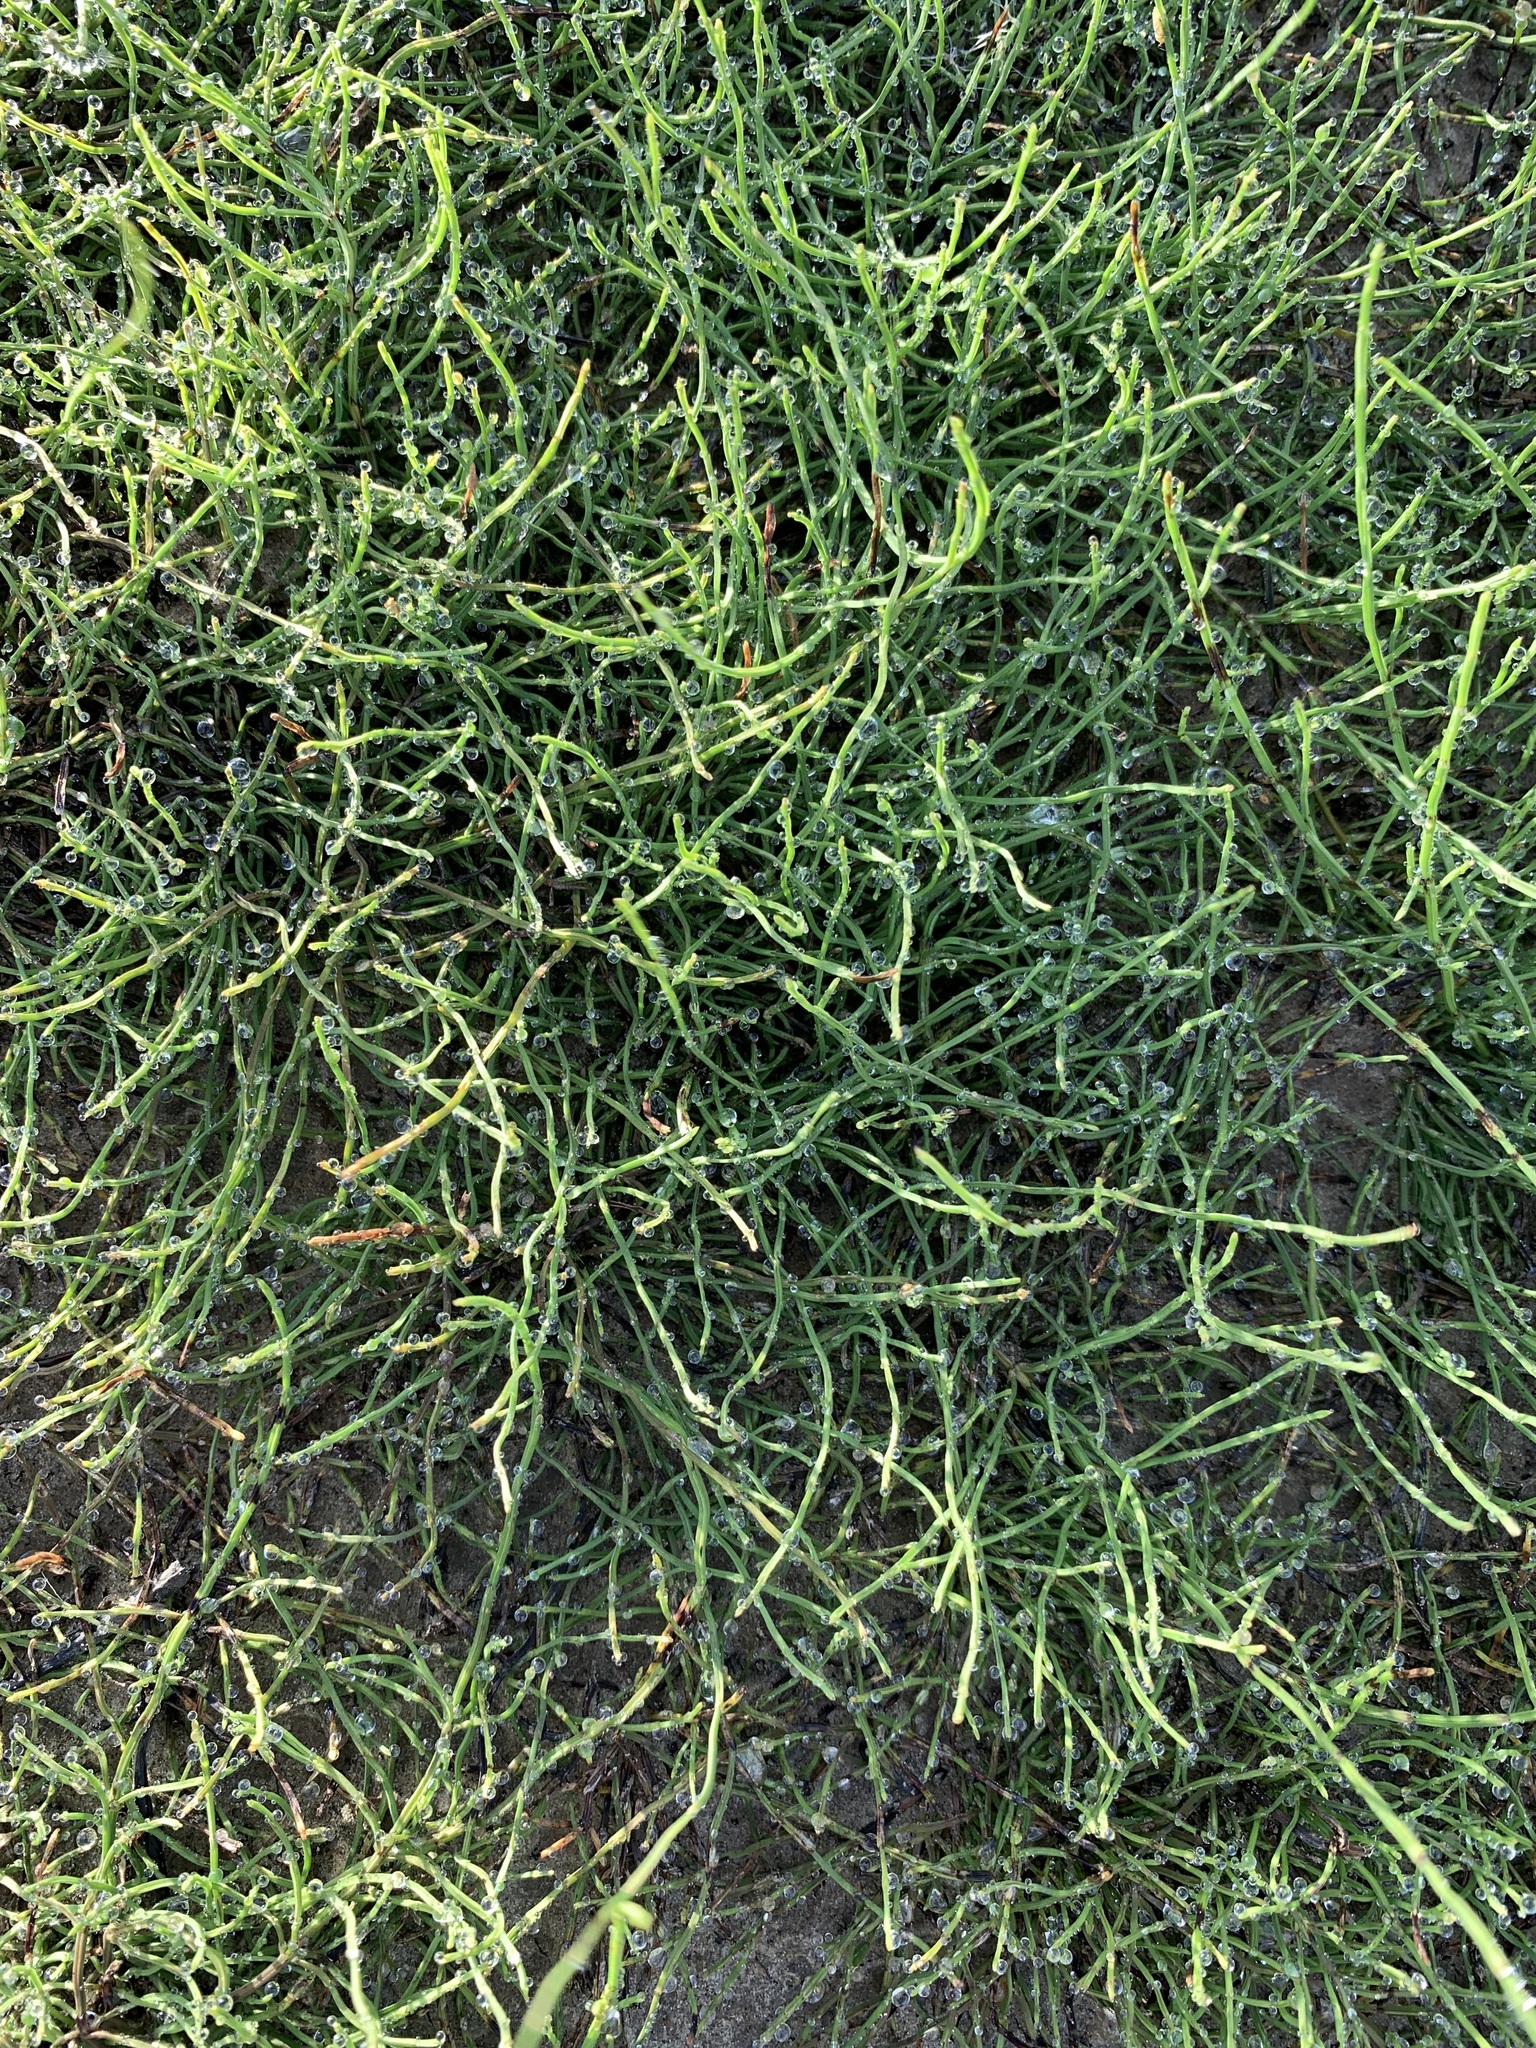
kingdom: Plantae
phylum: Tracheophyta
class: Polypodiopsida
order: Equisetales
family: Equisetaceae
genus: Equisetum
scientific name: Equisetum arvense
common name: Field horsetail
